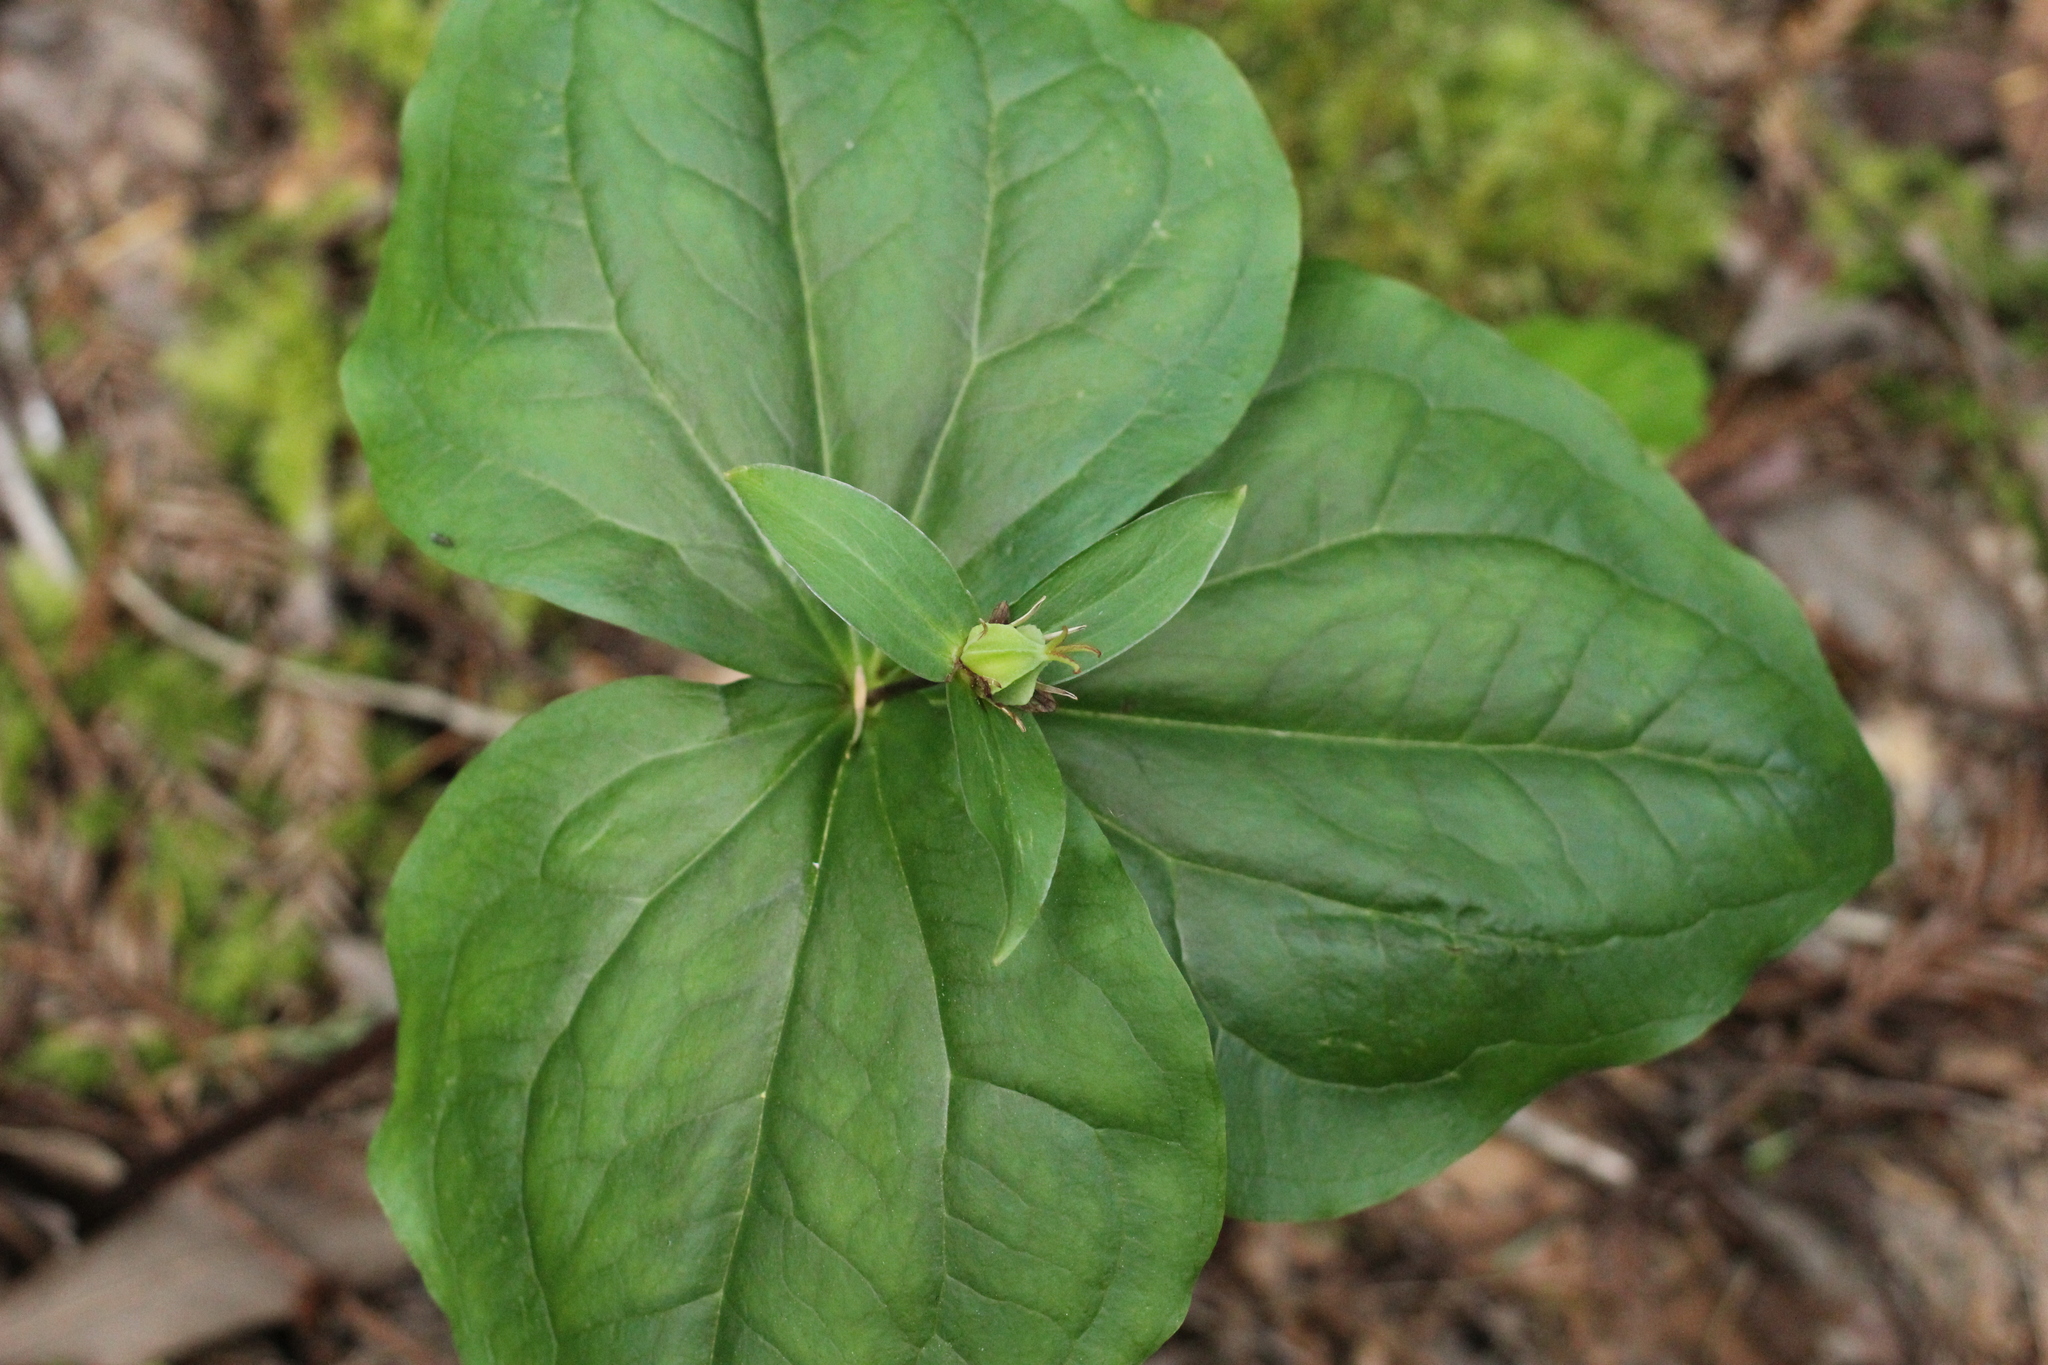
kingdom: Plantae
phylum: Tracheophyta
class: Liliopsida
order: Liliales
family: Melanthiaceae
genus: Trillium
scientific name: Trillium ovatum
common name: Pacific trillium
